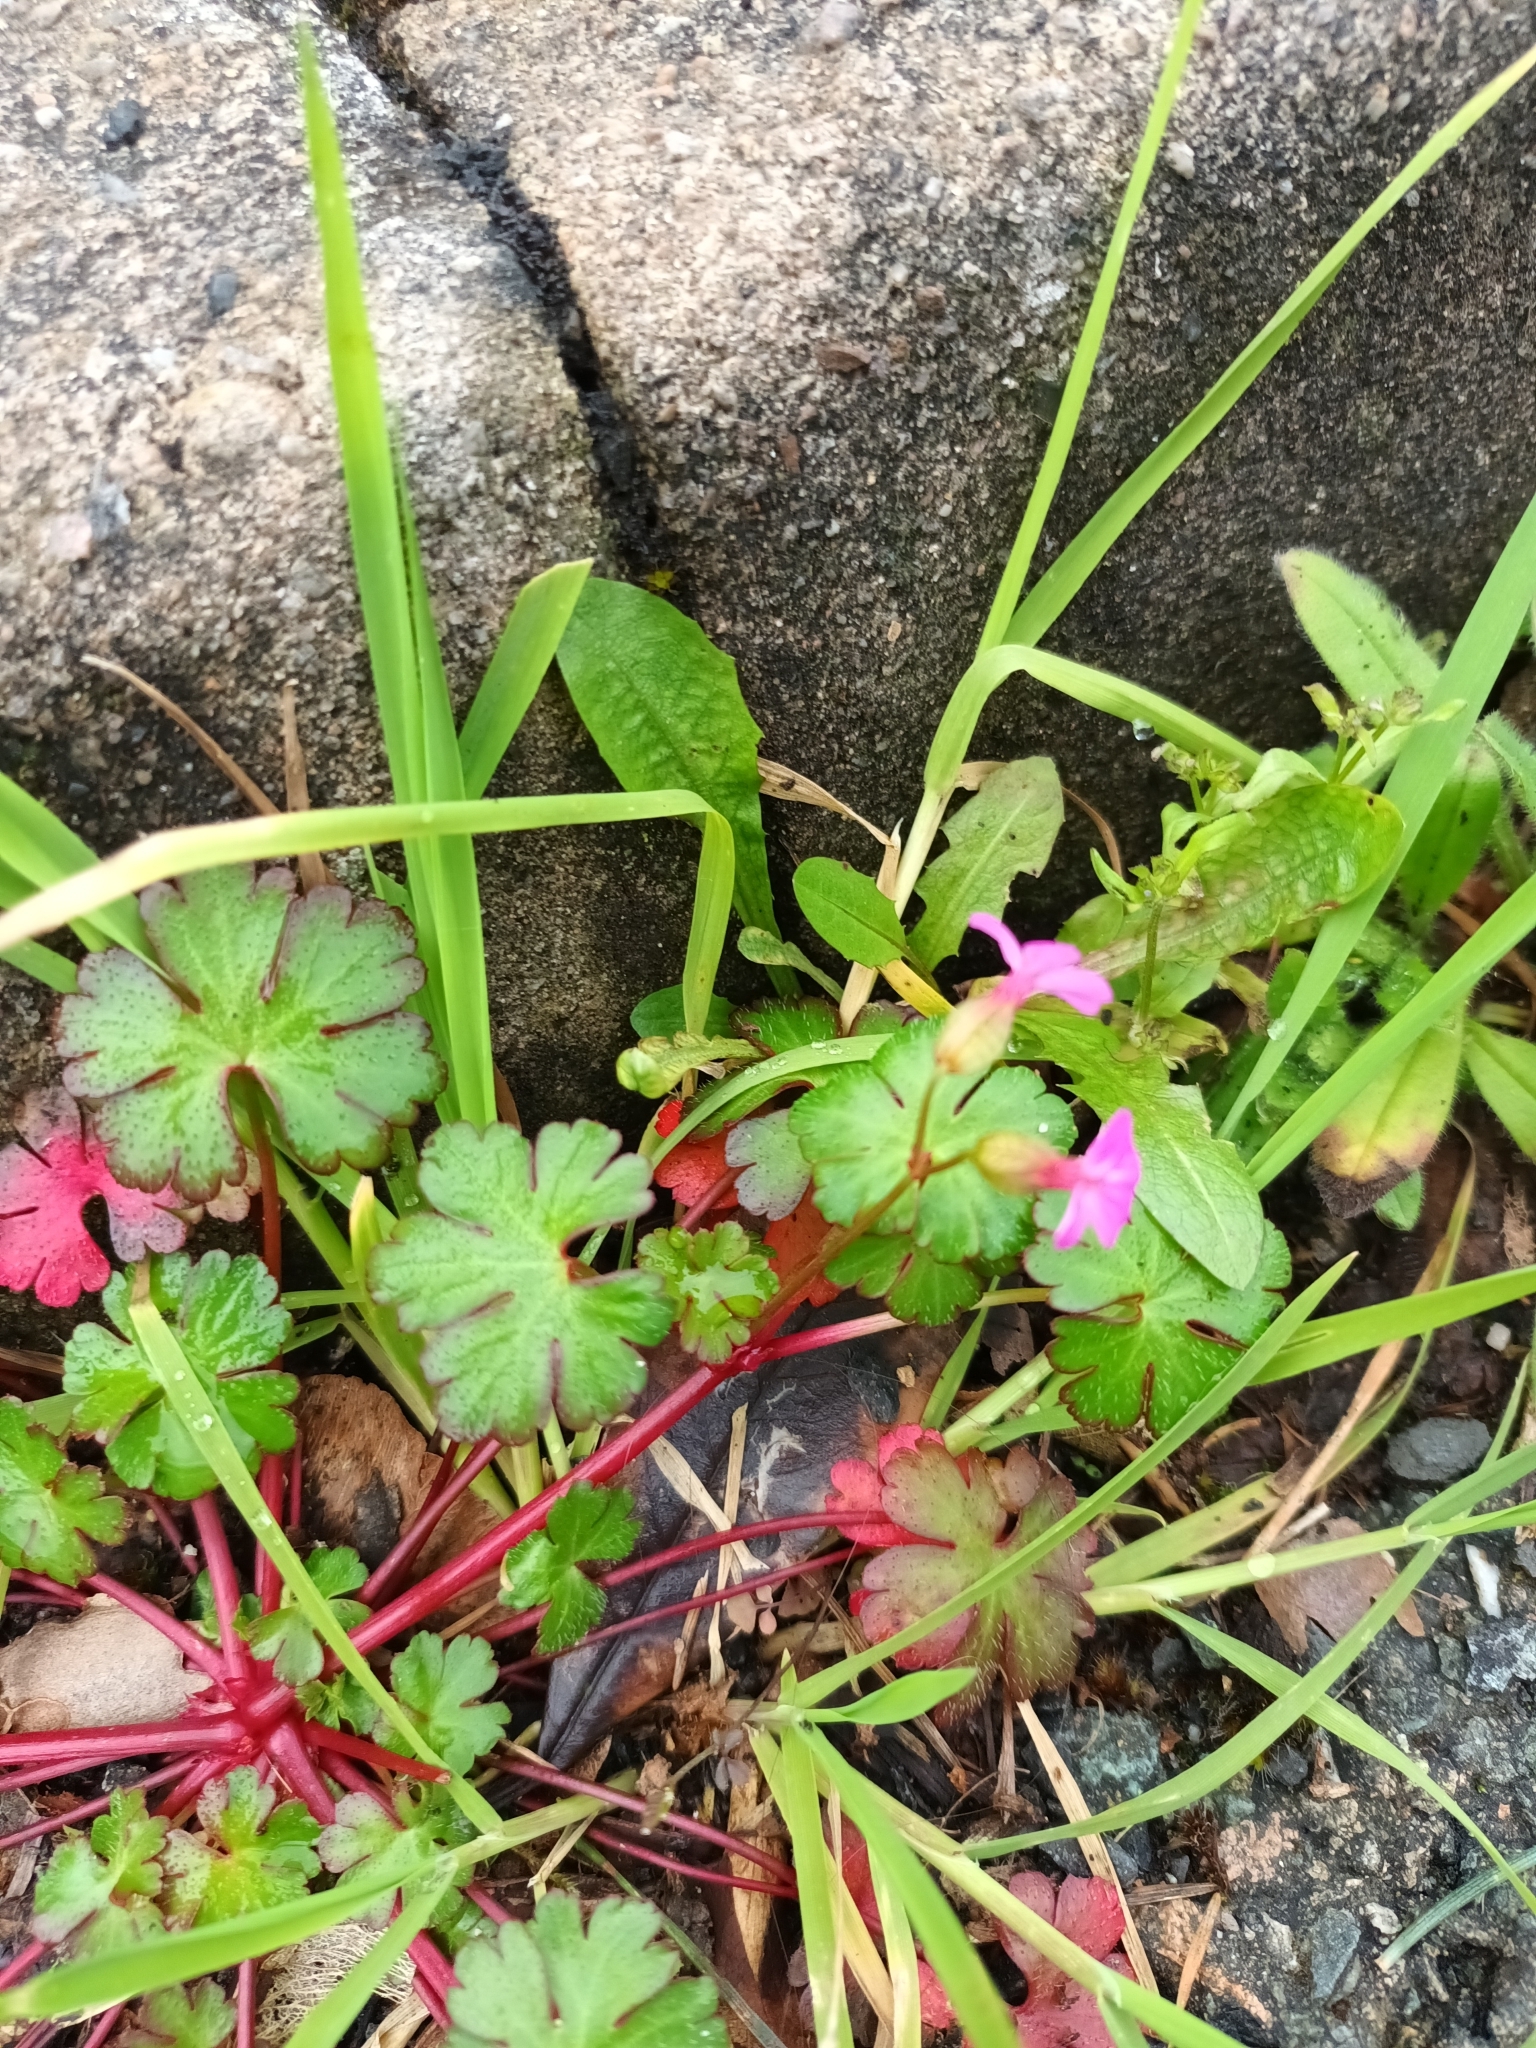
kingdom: Plantae
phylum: Tracheophyta
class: Magnoliopsida
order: Geraniales
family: Geraniaceae
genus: Geranium
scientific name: Geranium lucidum
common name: Shining crane's-bill
